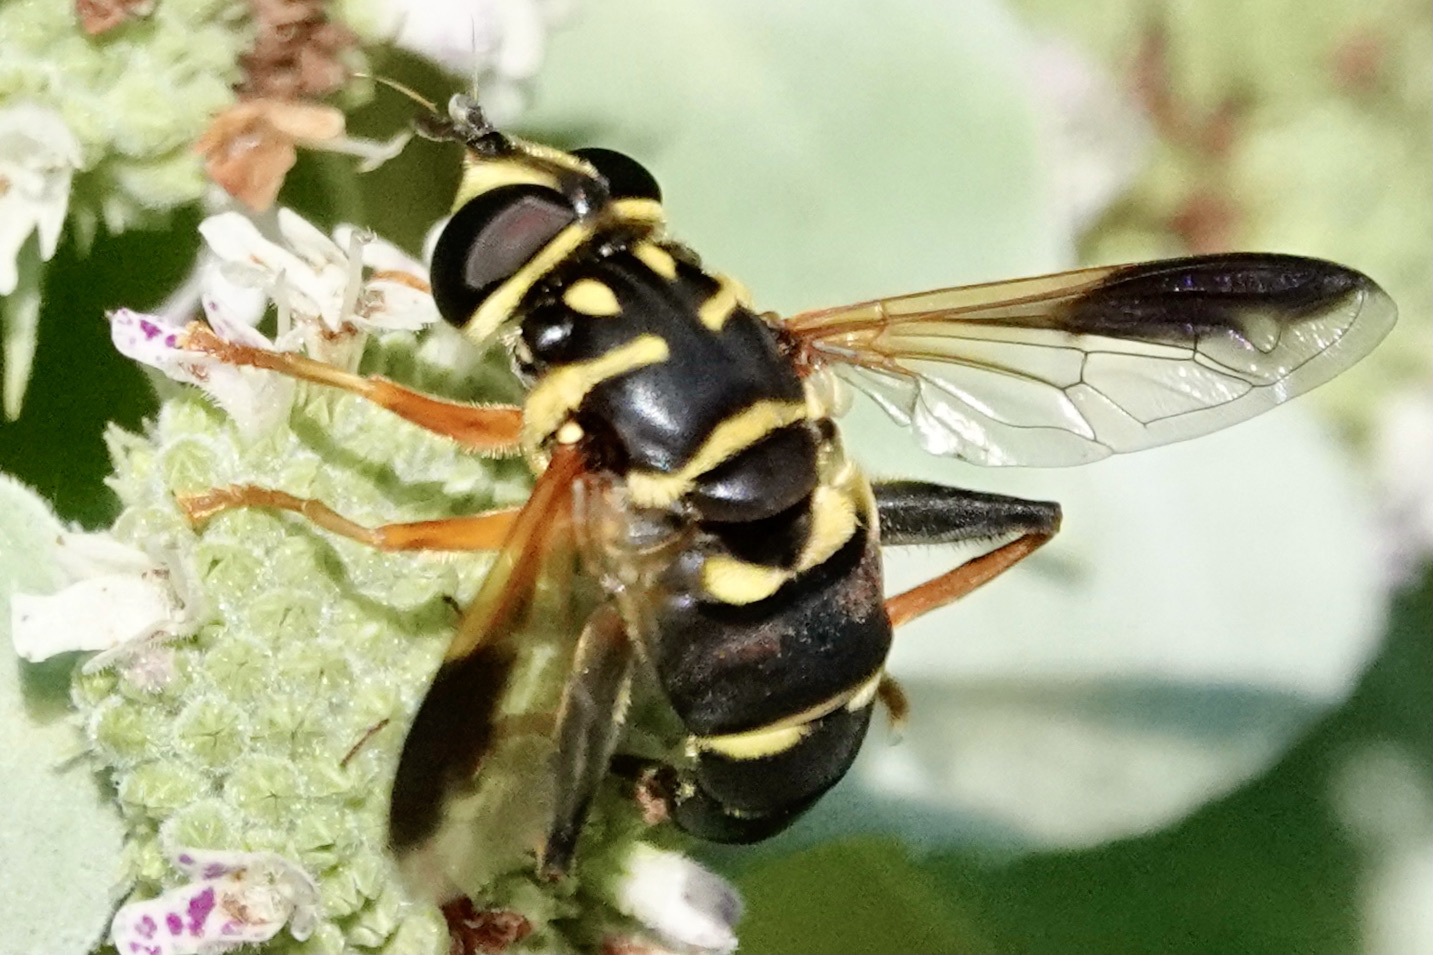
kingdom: Animalia
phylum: Arthropoda
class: Insecta
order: Diptera
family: Syrphidae
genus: Meromacrus
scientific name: Meromacrus acutus
